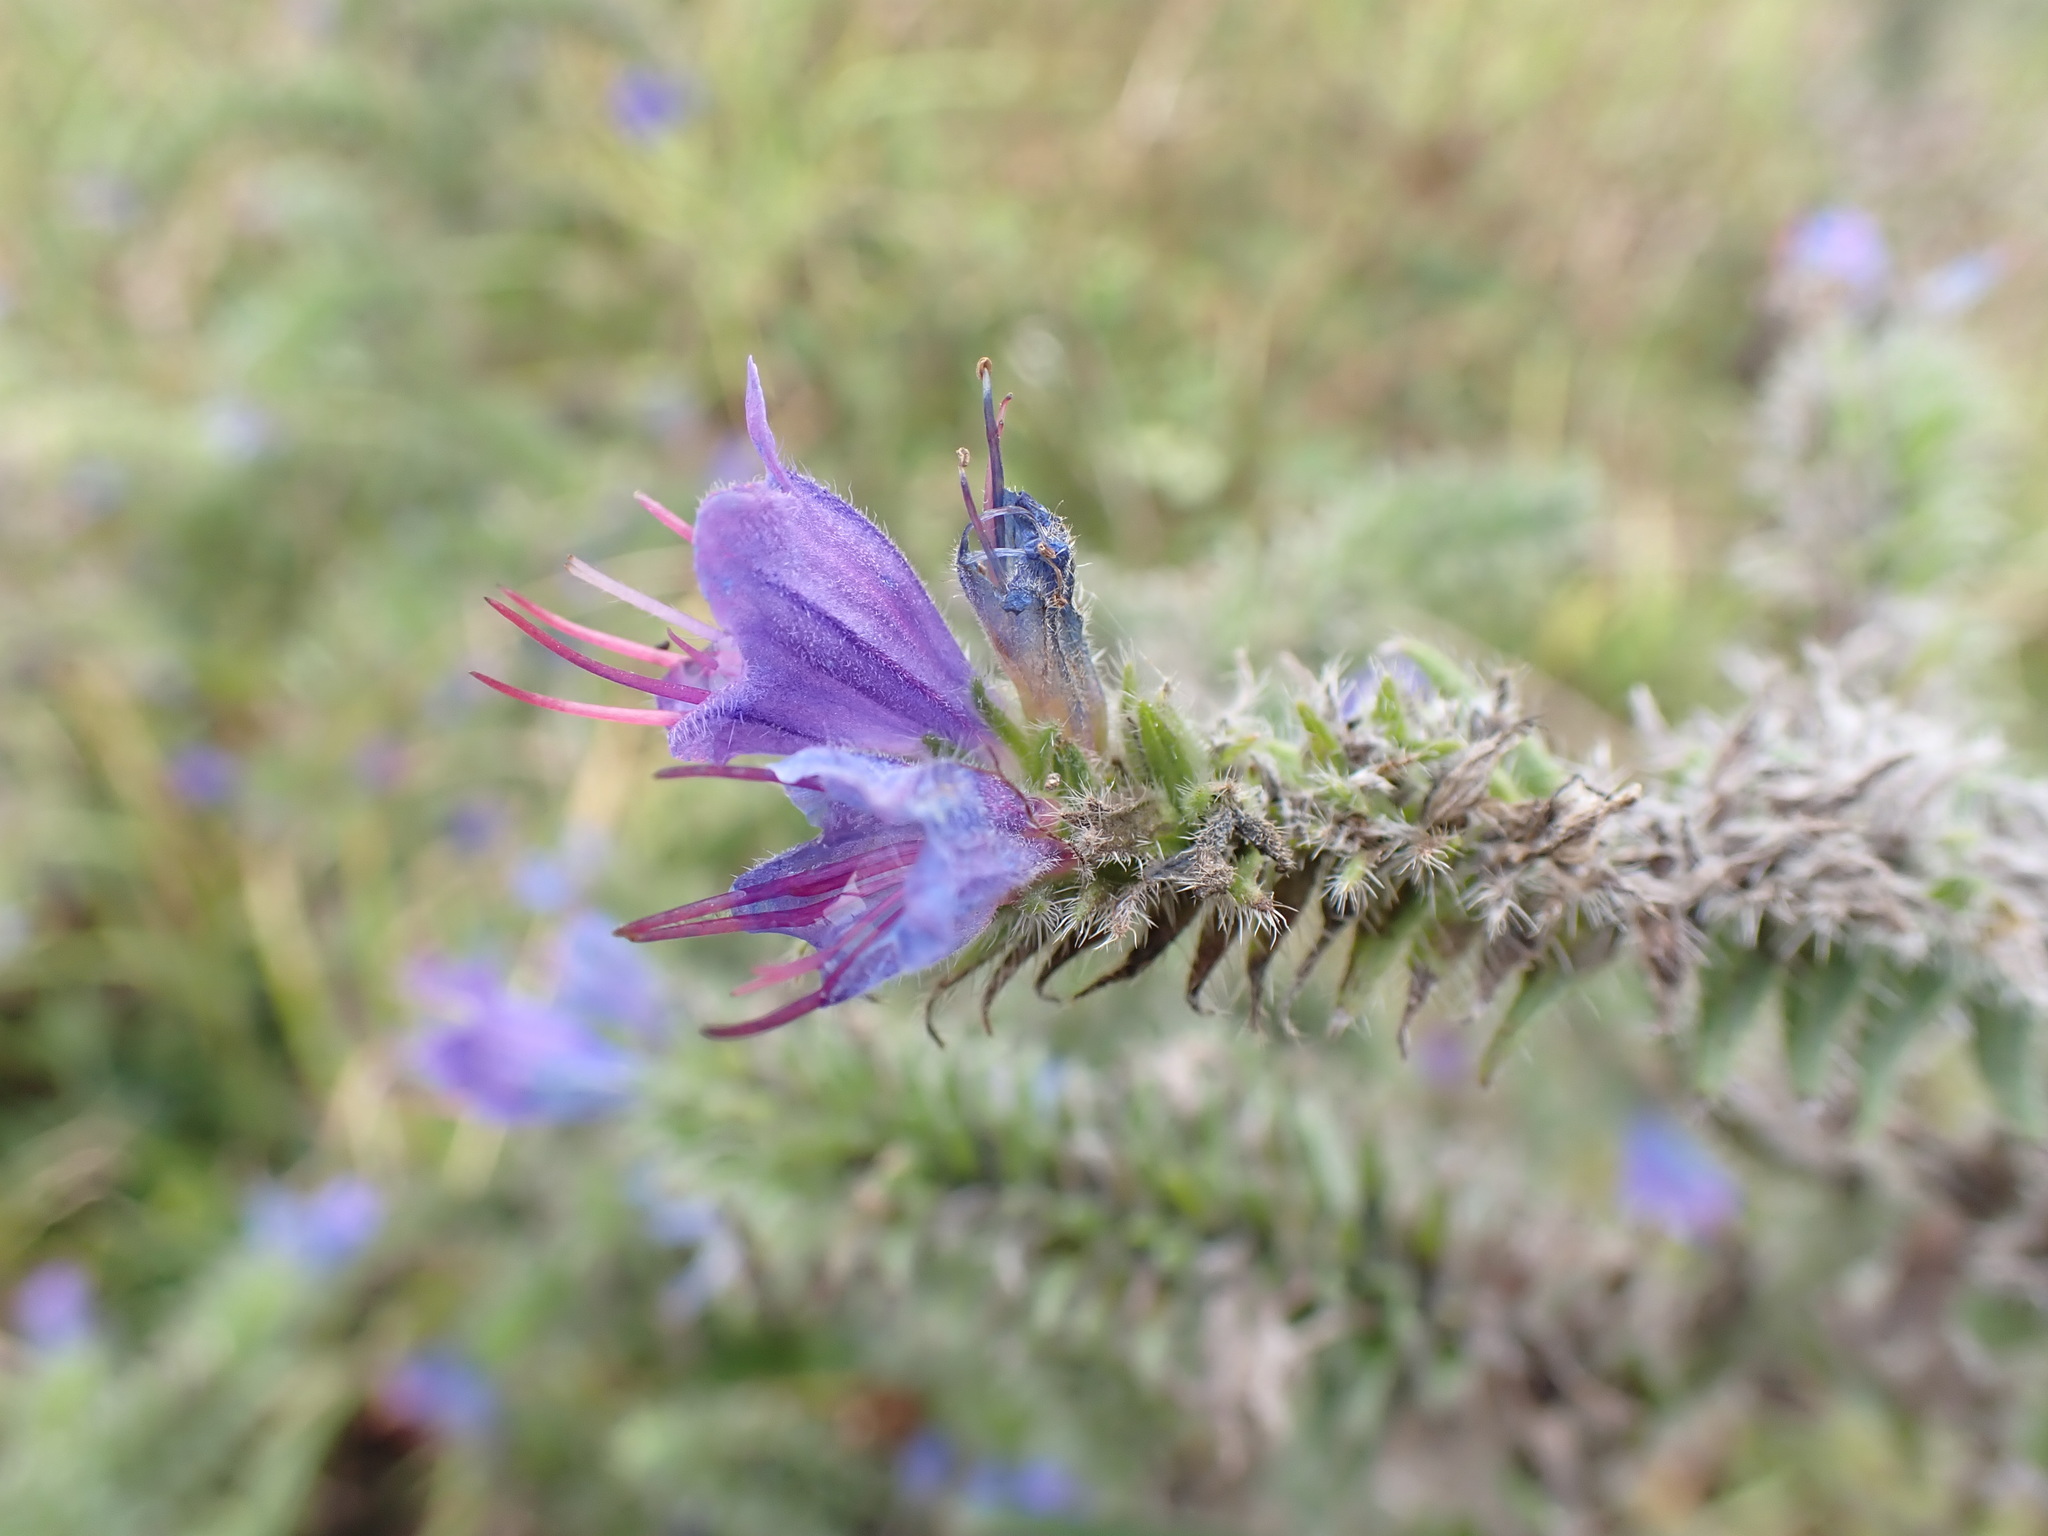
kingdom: Plantae
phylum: Tracheophyta
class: Magnoliopsida
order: Boraginales
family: Boraginaceae
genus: Echium
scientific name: Echium vulgare
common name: Common viper's bugloss
